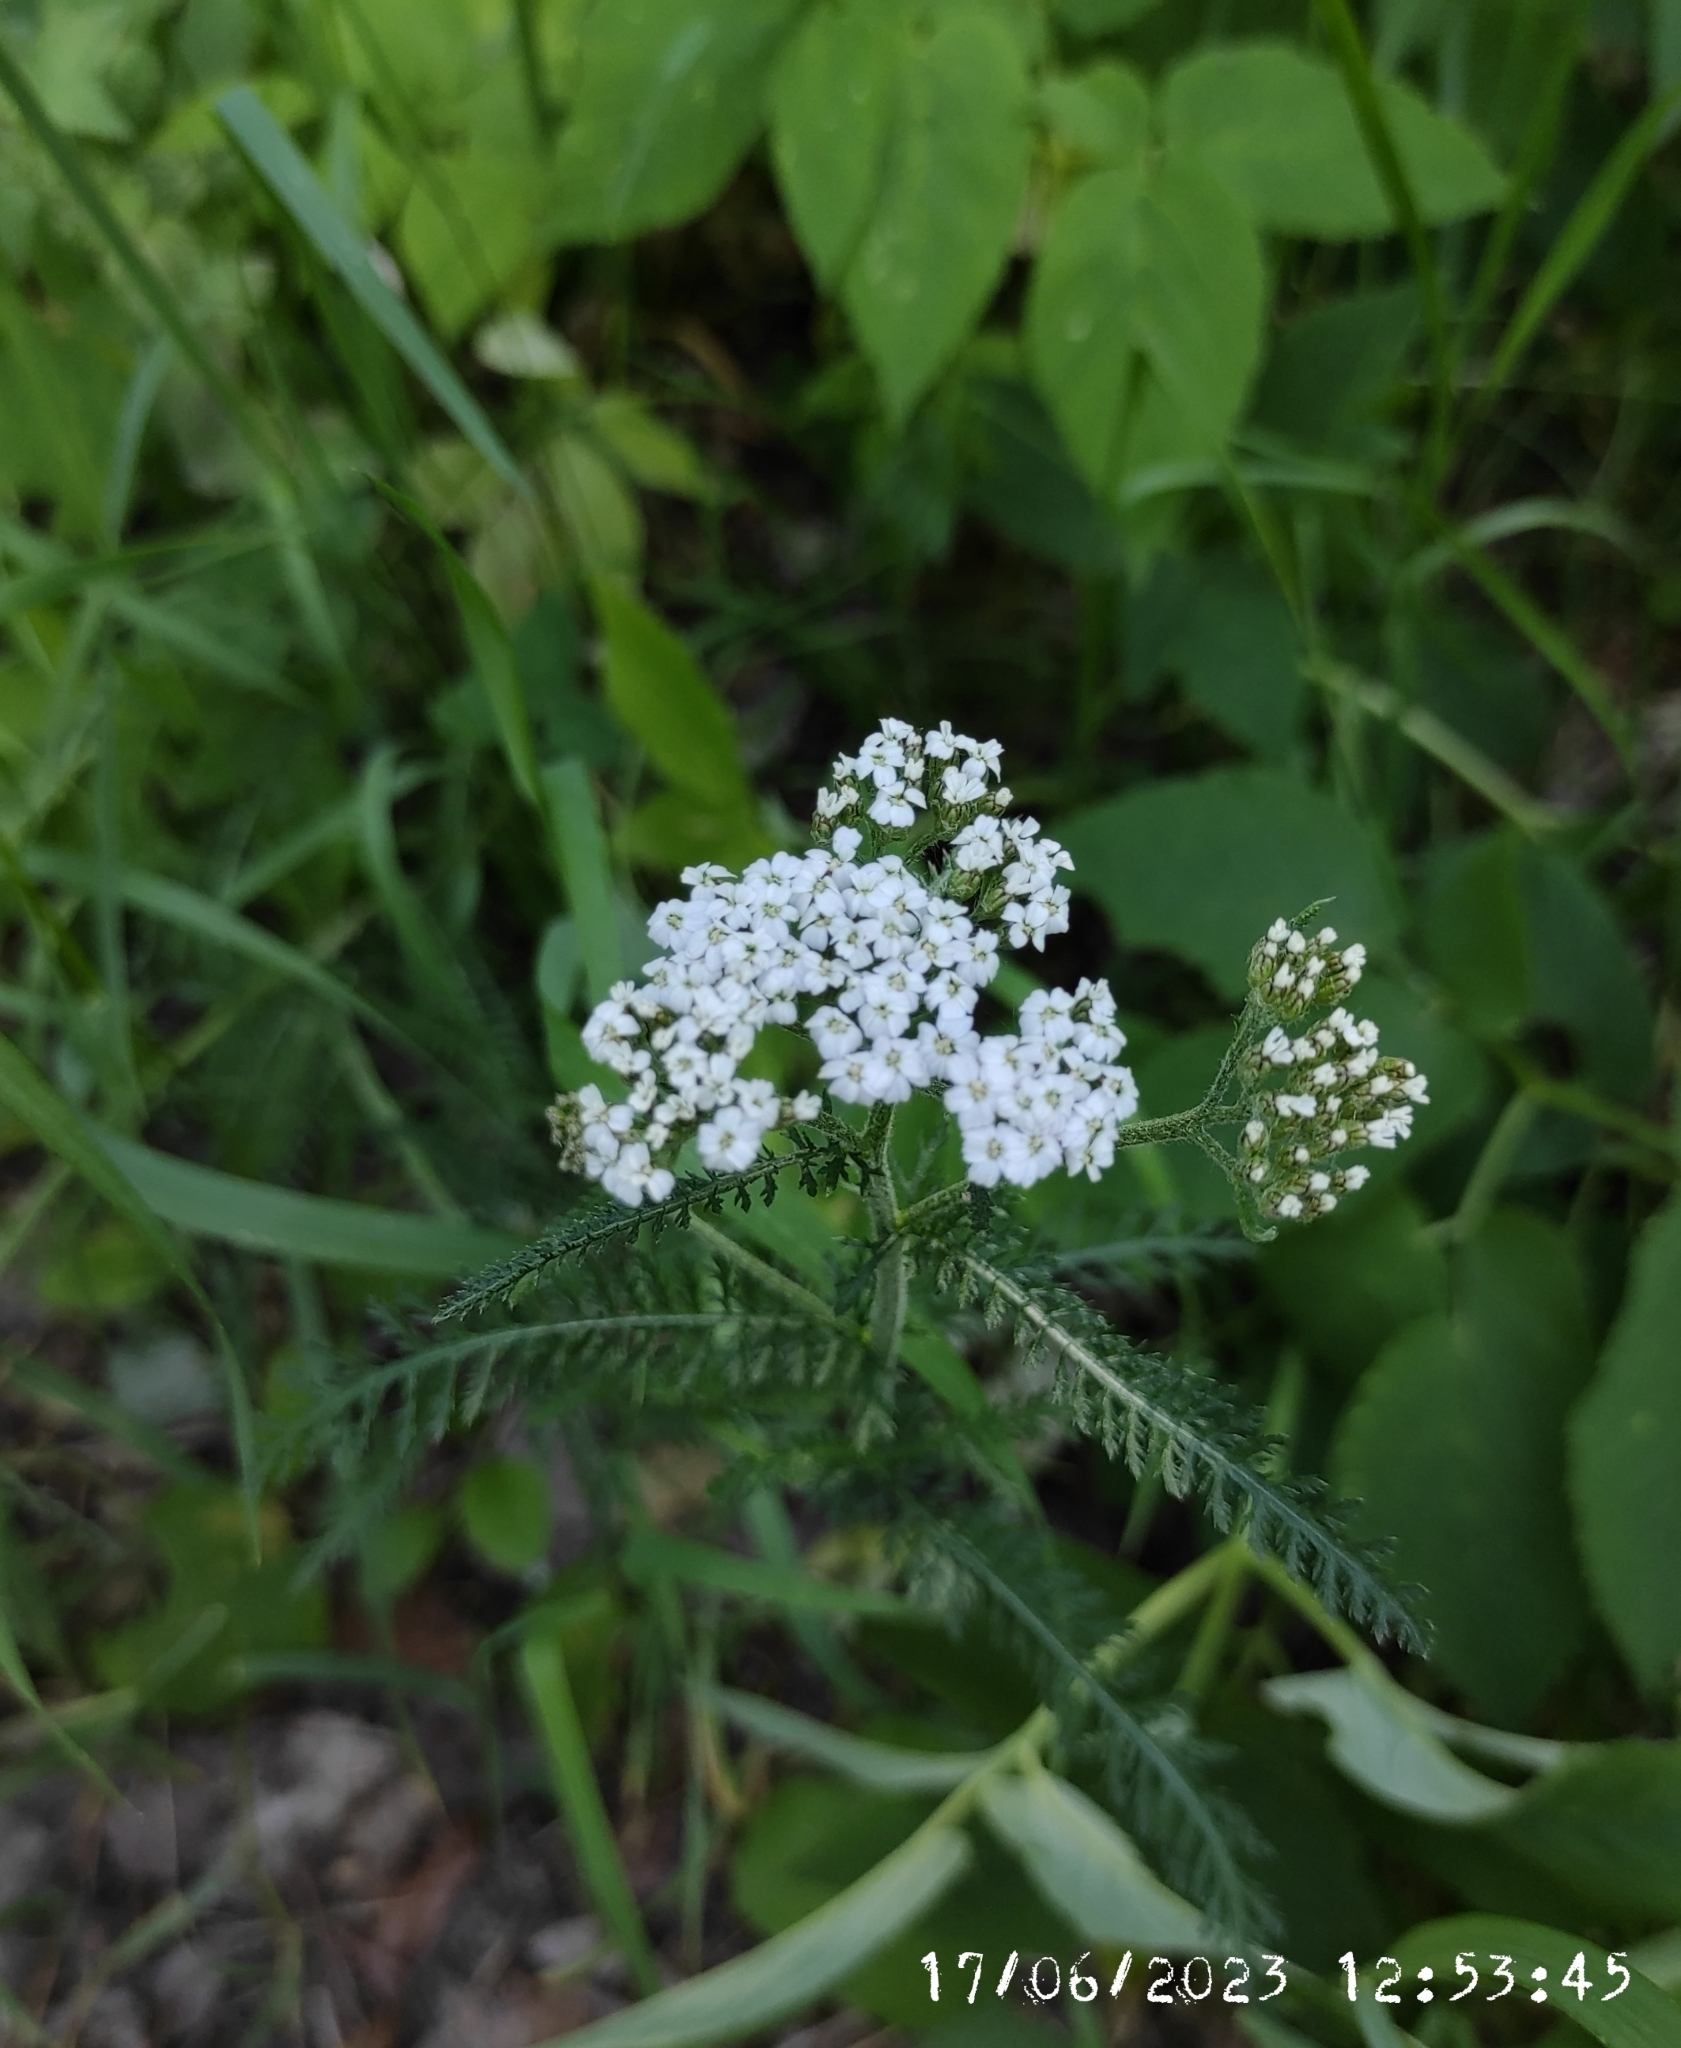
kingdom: Plantae
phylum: Tracheophyta
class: Magnoliopsida
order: Asterales
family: Asteraceae
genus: Achillea
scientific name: Achillea millefolium
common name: Yarrow
